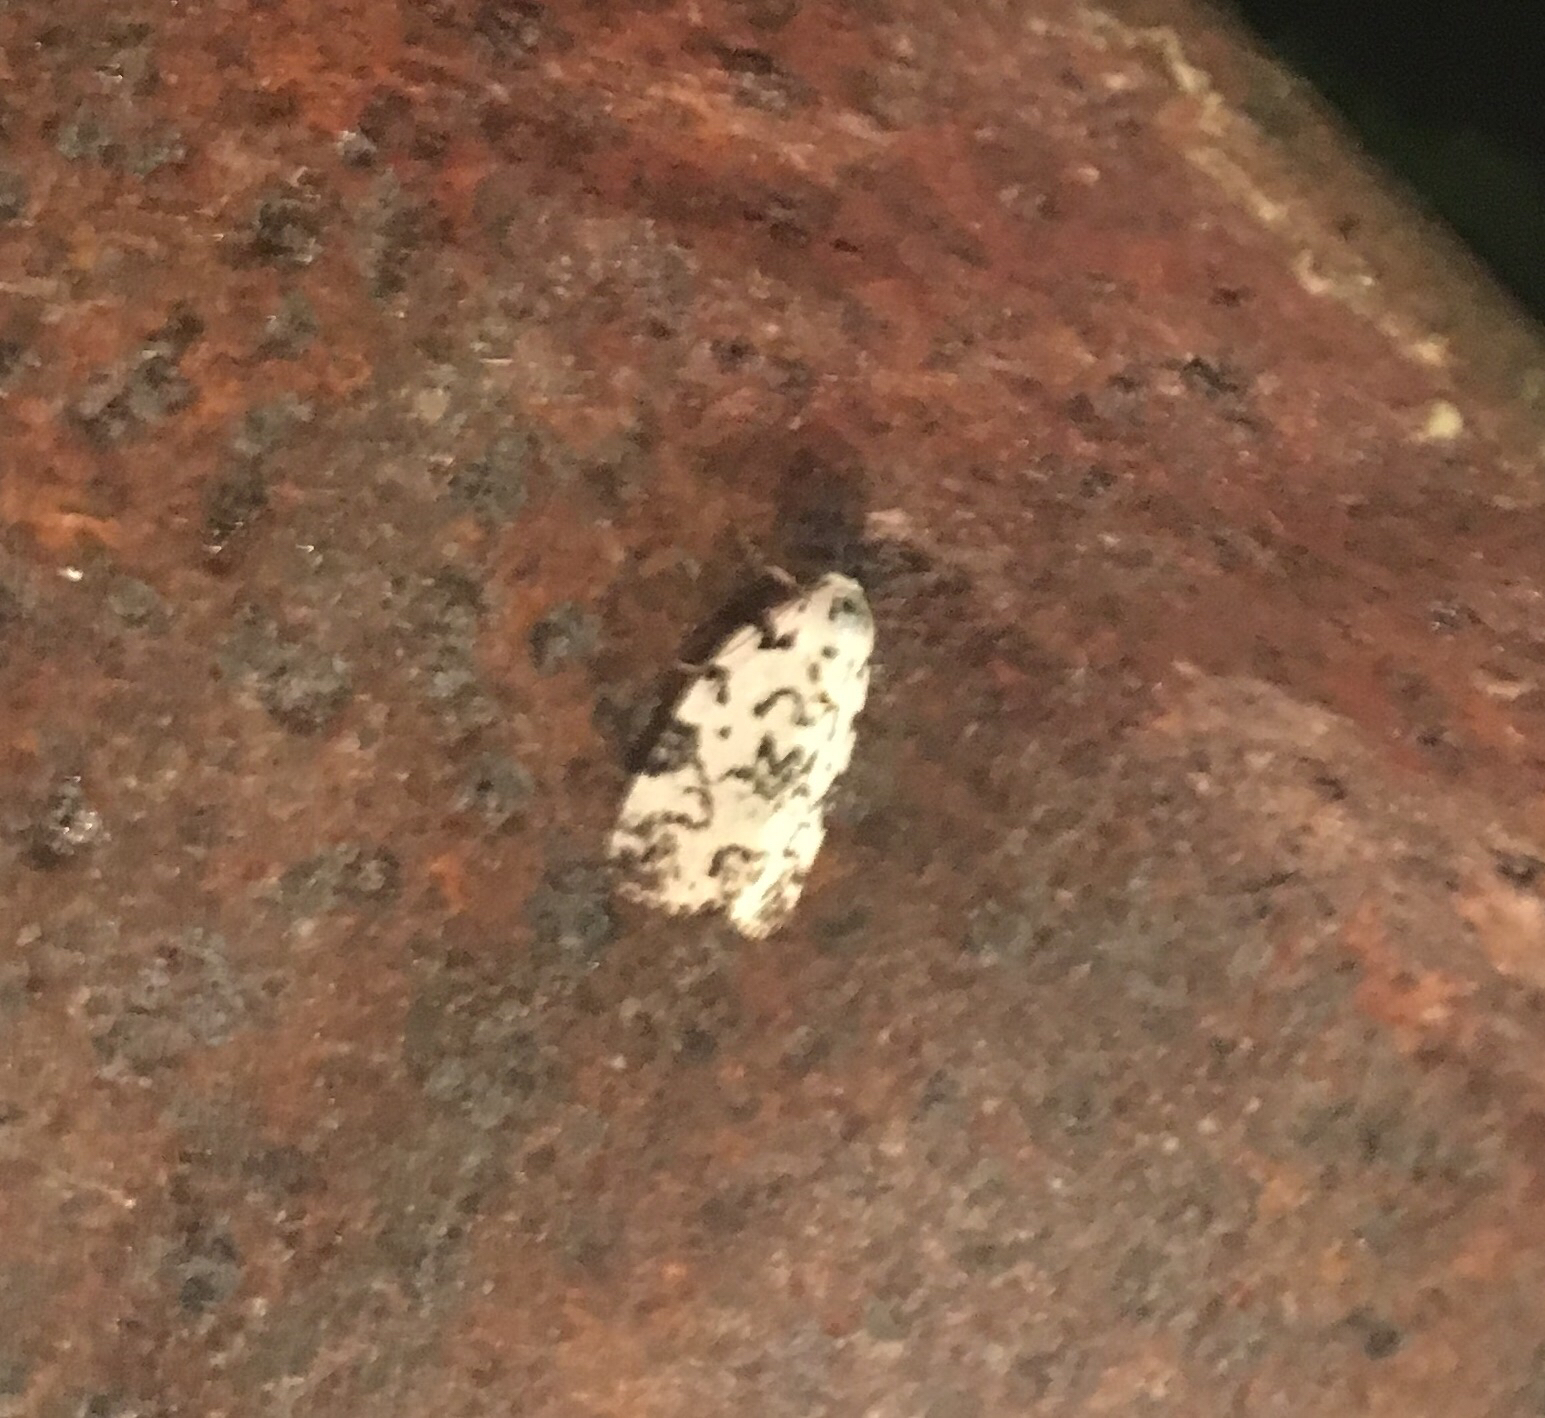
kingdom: Animalia
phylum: Arthropoda
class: Insecta
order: Lepidoptera
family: Noctuidae
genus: Polygrammate
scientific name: Polygrammate hebraeicum
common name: Hebrew moth
